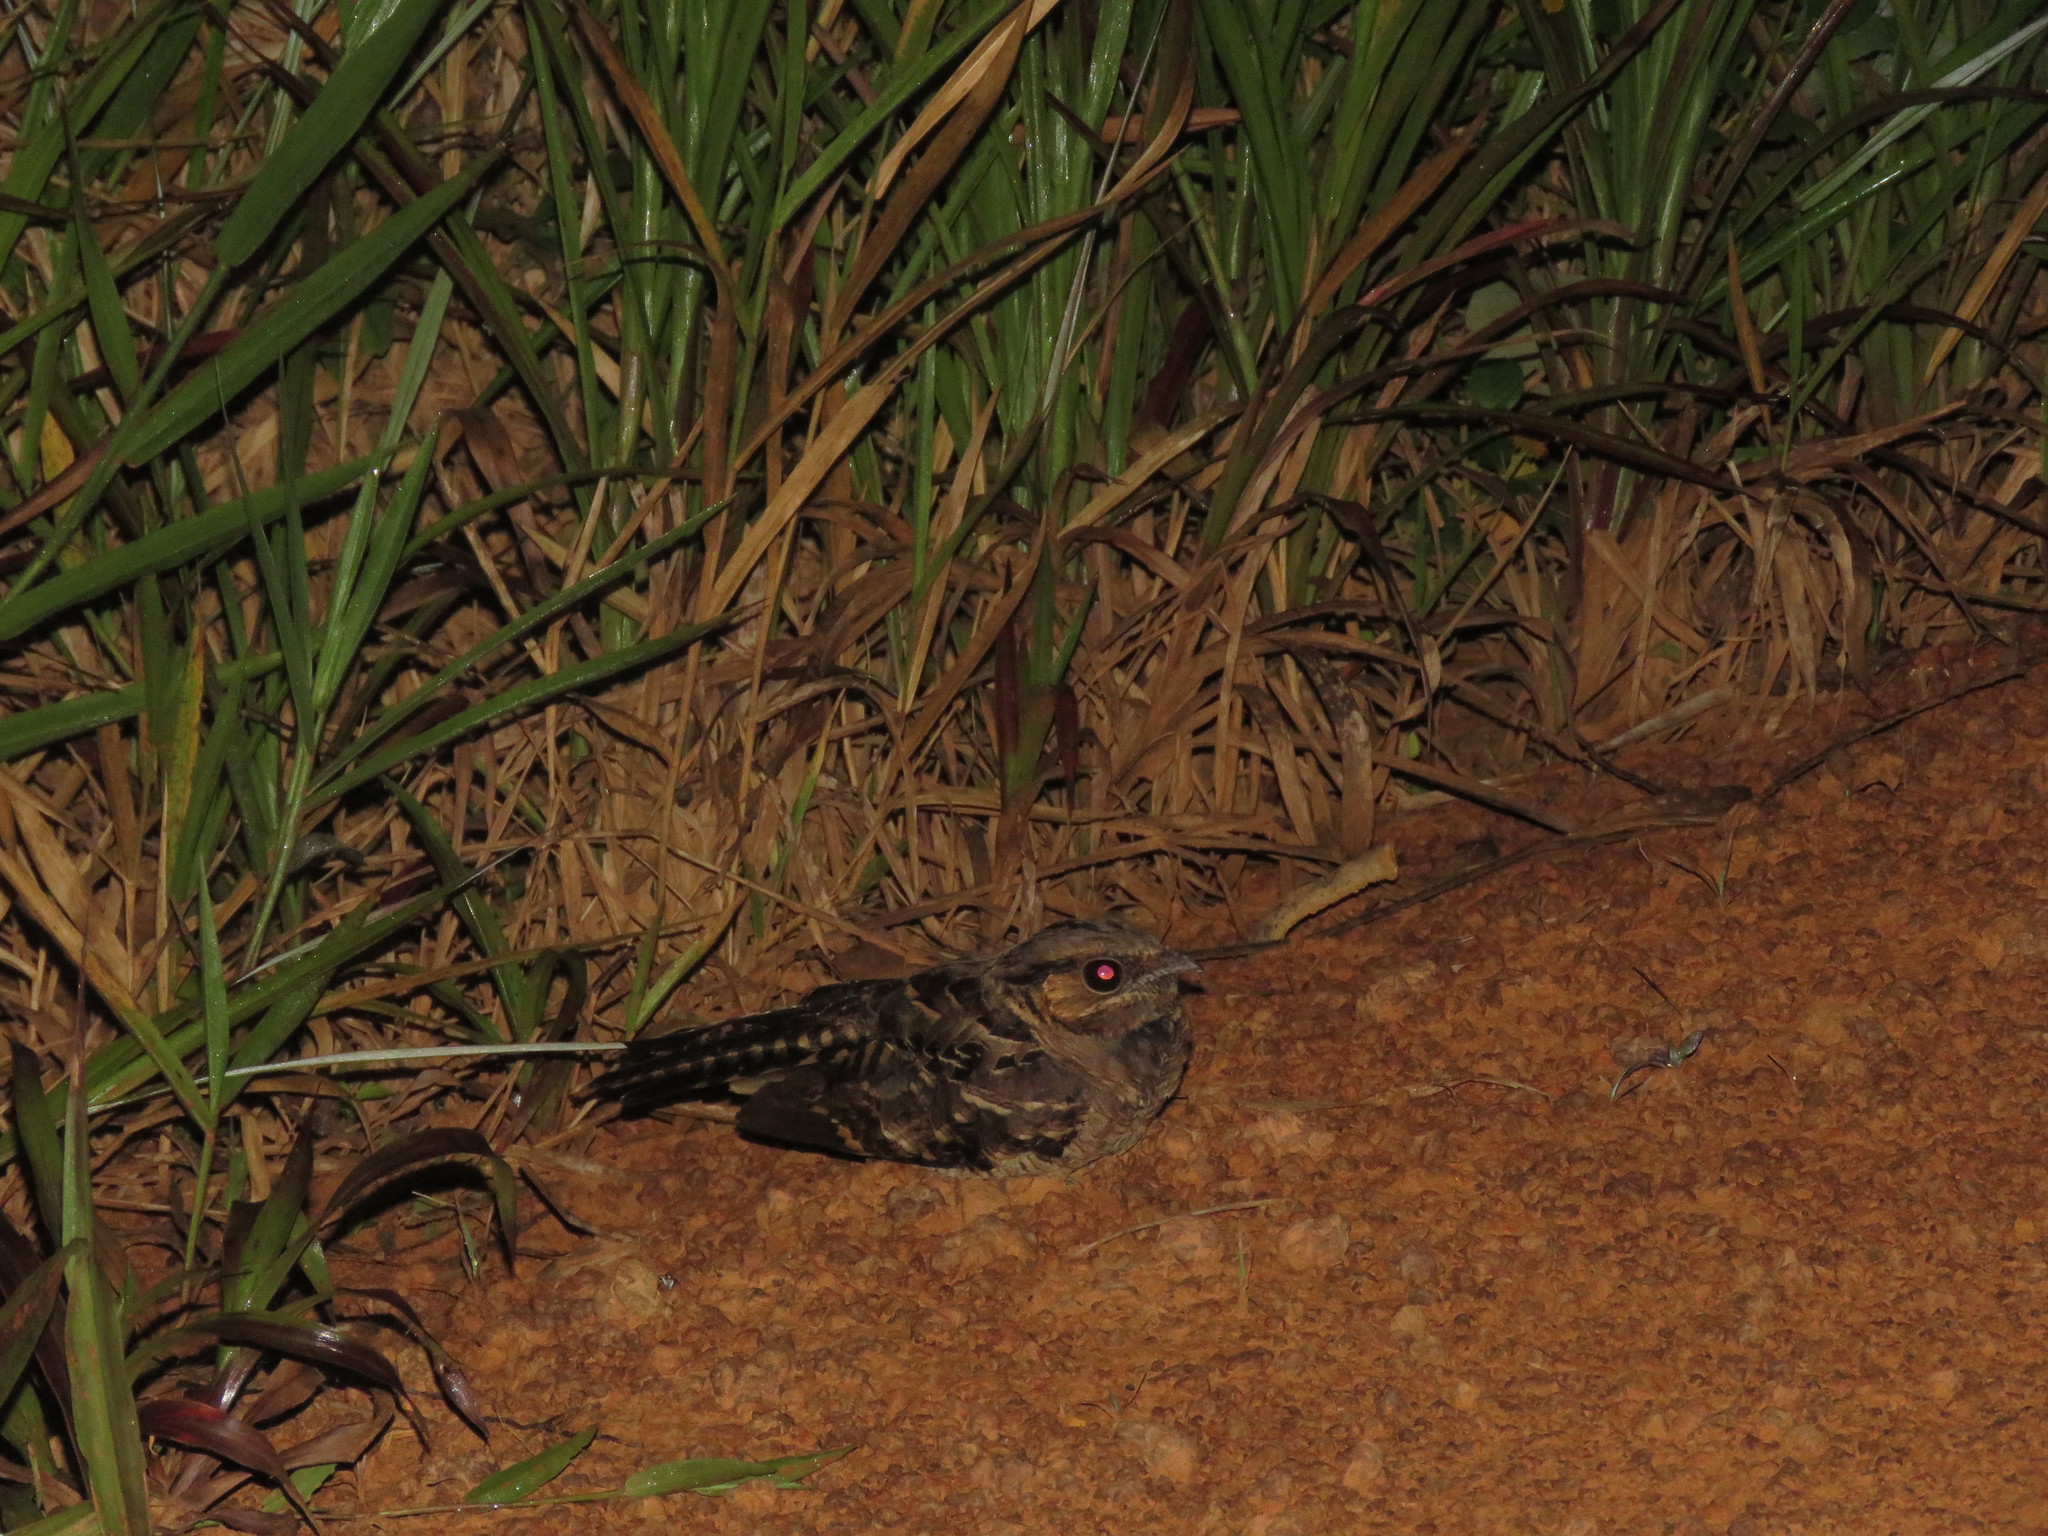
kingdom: Animalia
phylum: Chordata
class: Aves
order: Caprimulgiformes
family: Caprimulgidae
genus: Nyctidromus
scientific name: Nyctidromus albicollis
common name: Pauraque
